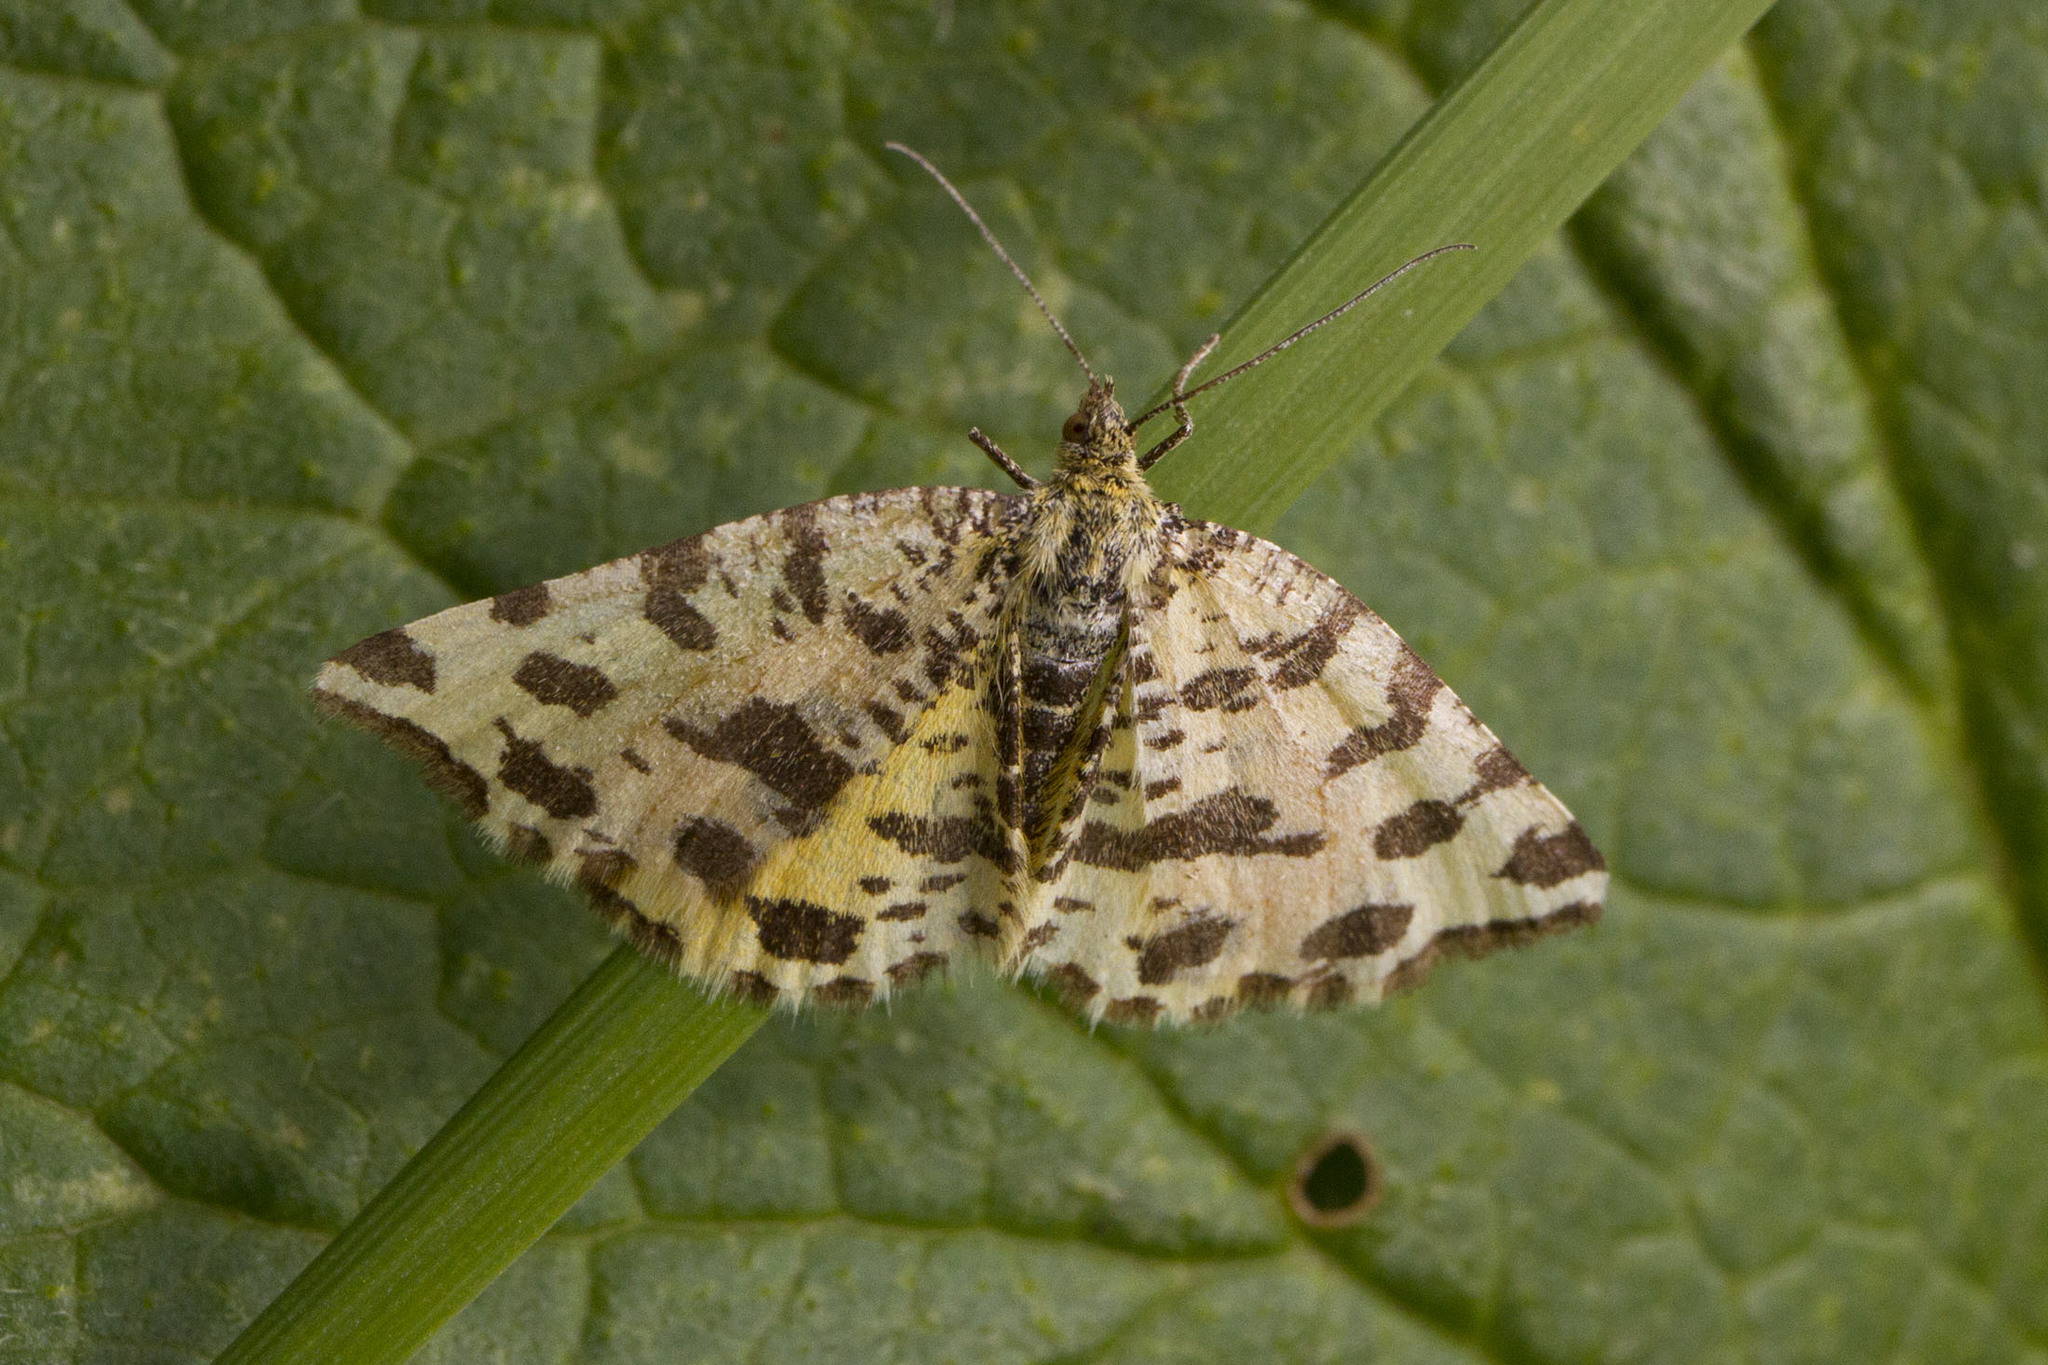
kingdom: Animalia
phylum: Arthropoda
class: Insecta
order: Lepidoptera
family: Geometridae
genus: Pseudopanthera
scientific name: Pseudopanthera macularia
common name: Speckled yellow
